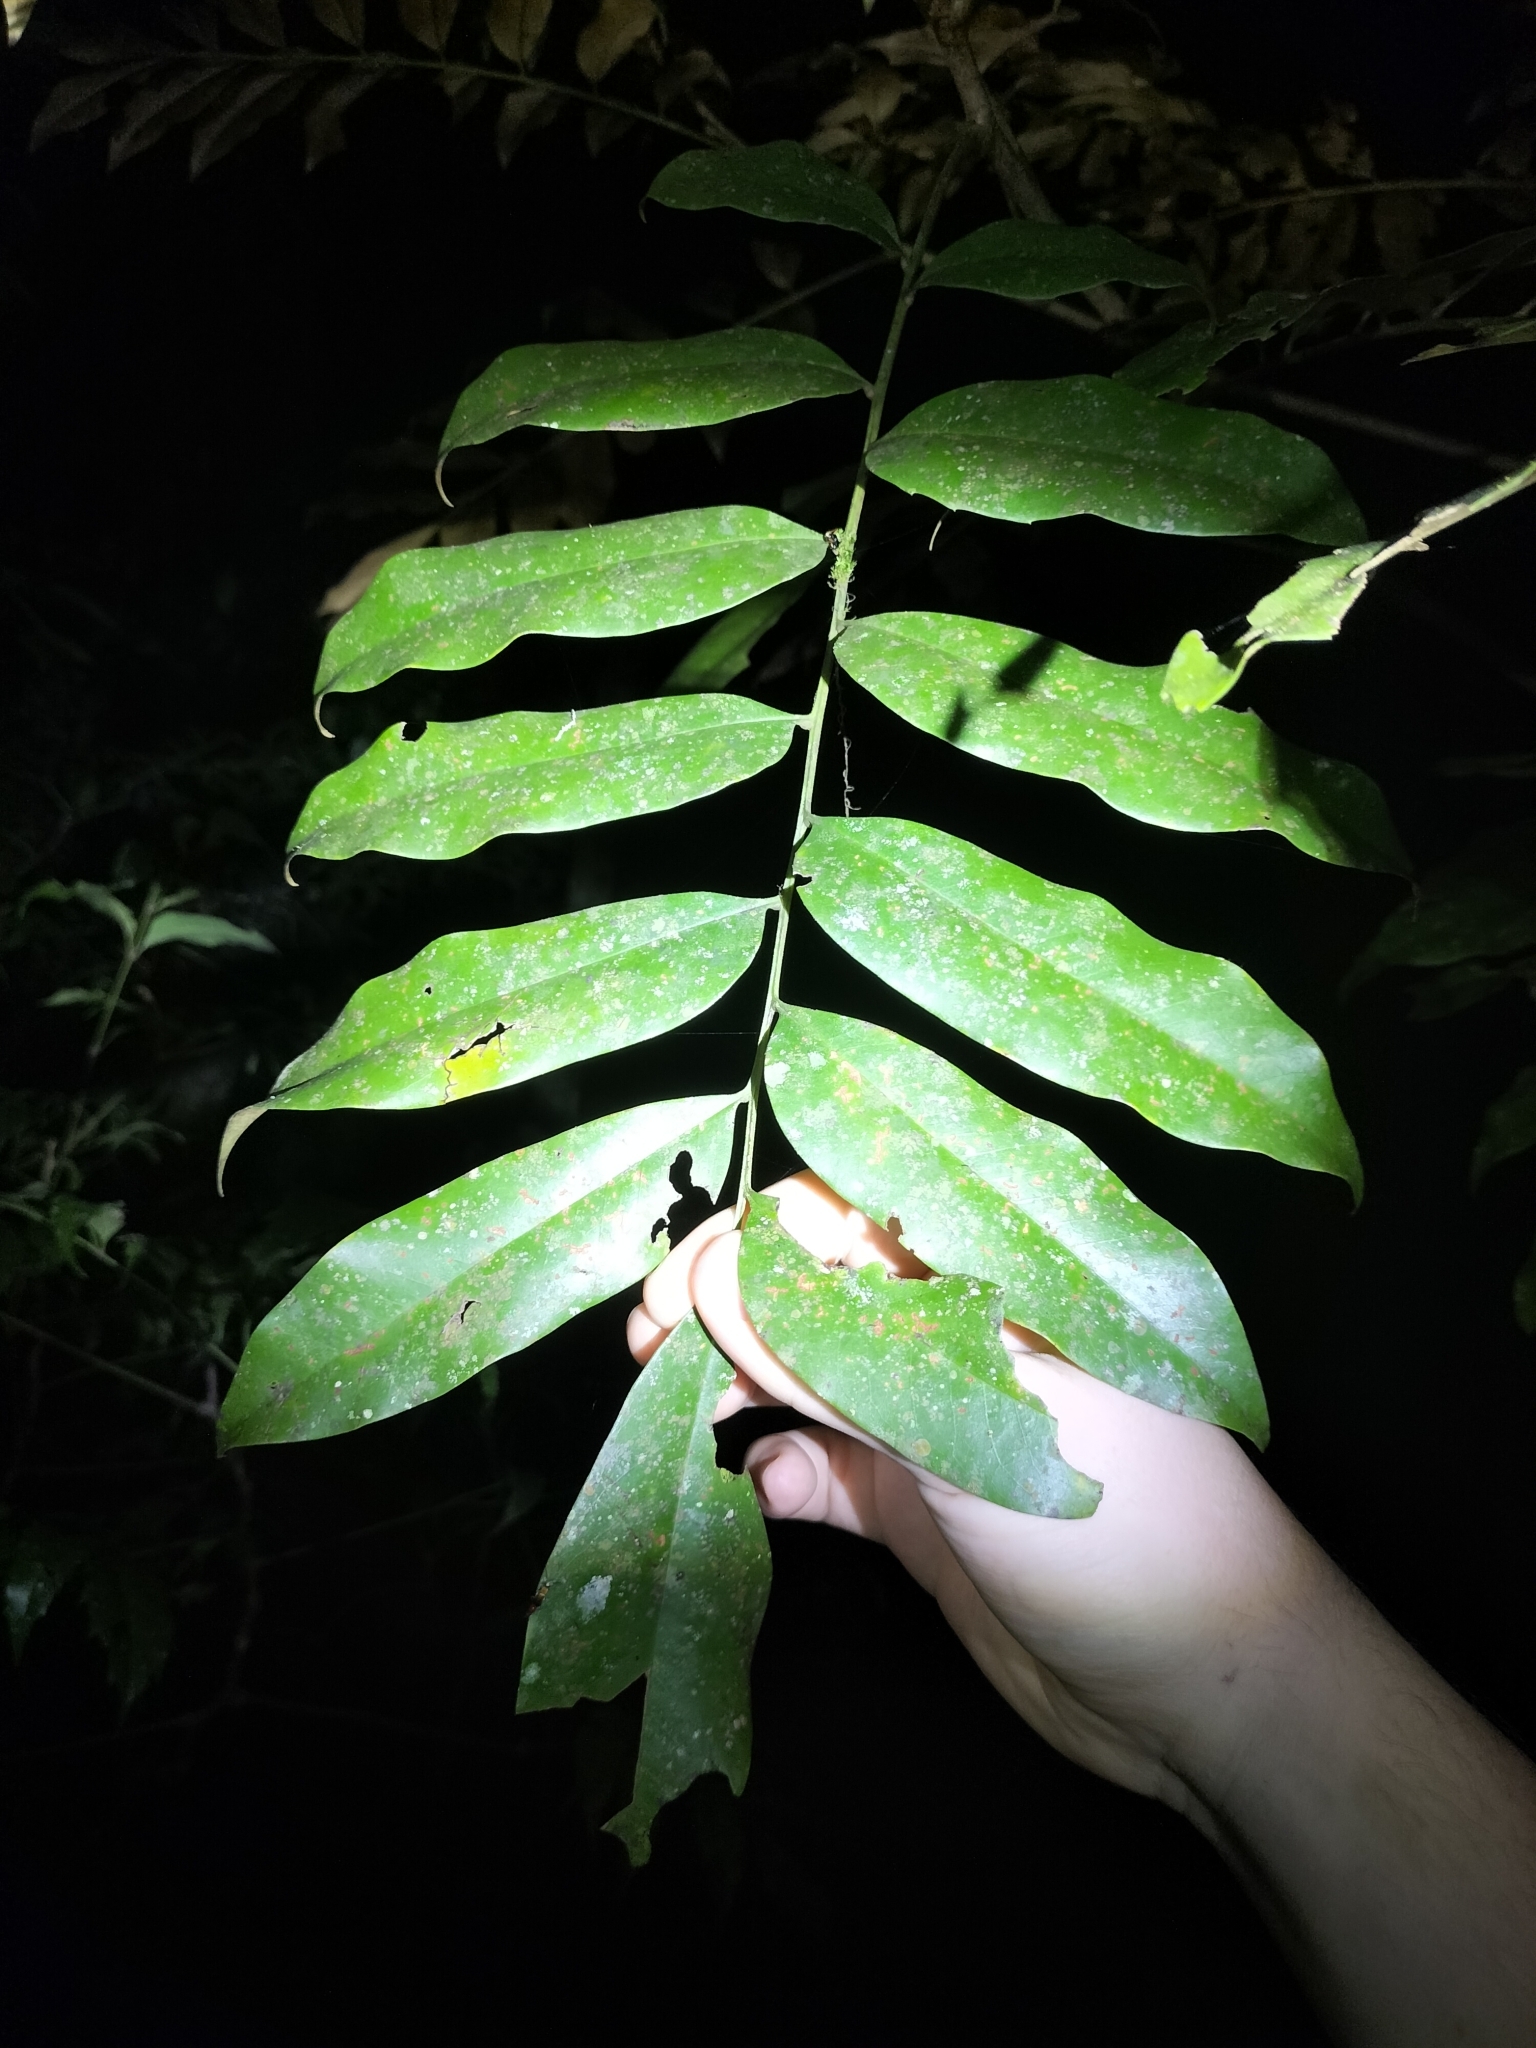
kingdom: Plantae
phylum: Tracheophyta
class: Magnoliopsida
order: Proteales
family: Proteaceae
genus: Opisthiolepis
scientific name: Opisthiolepis heterophylla
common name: Blush silky oak
